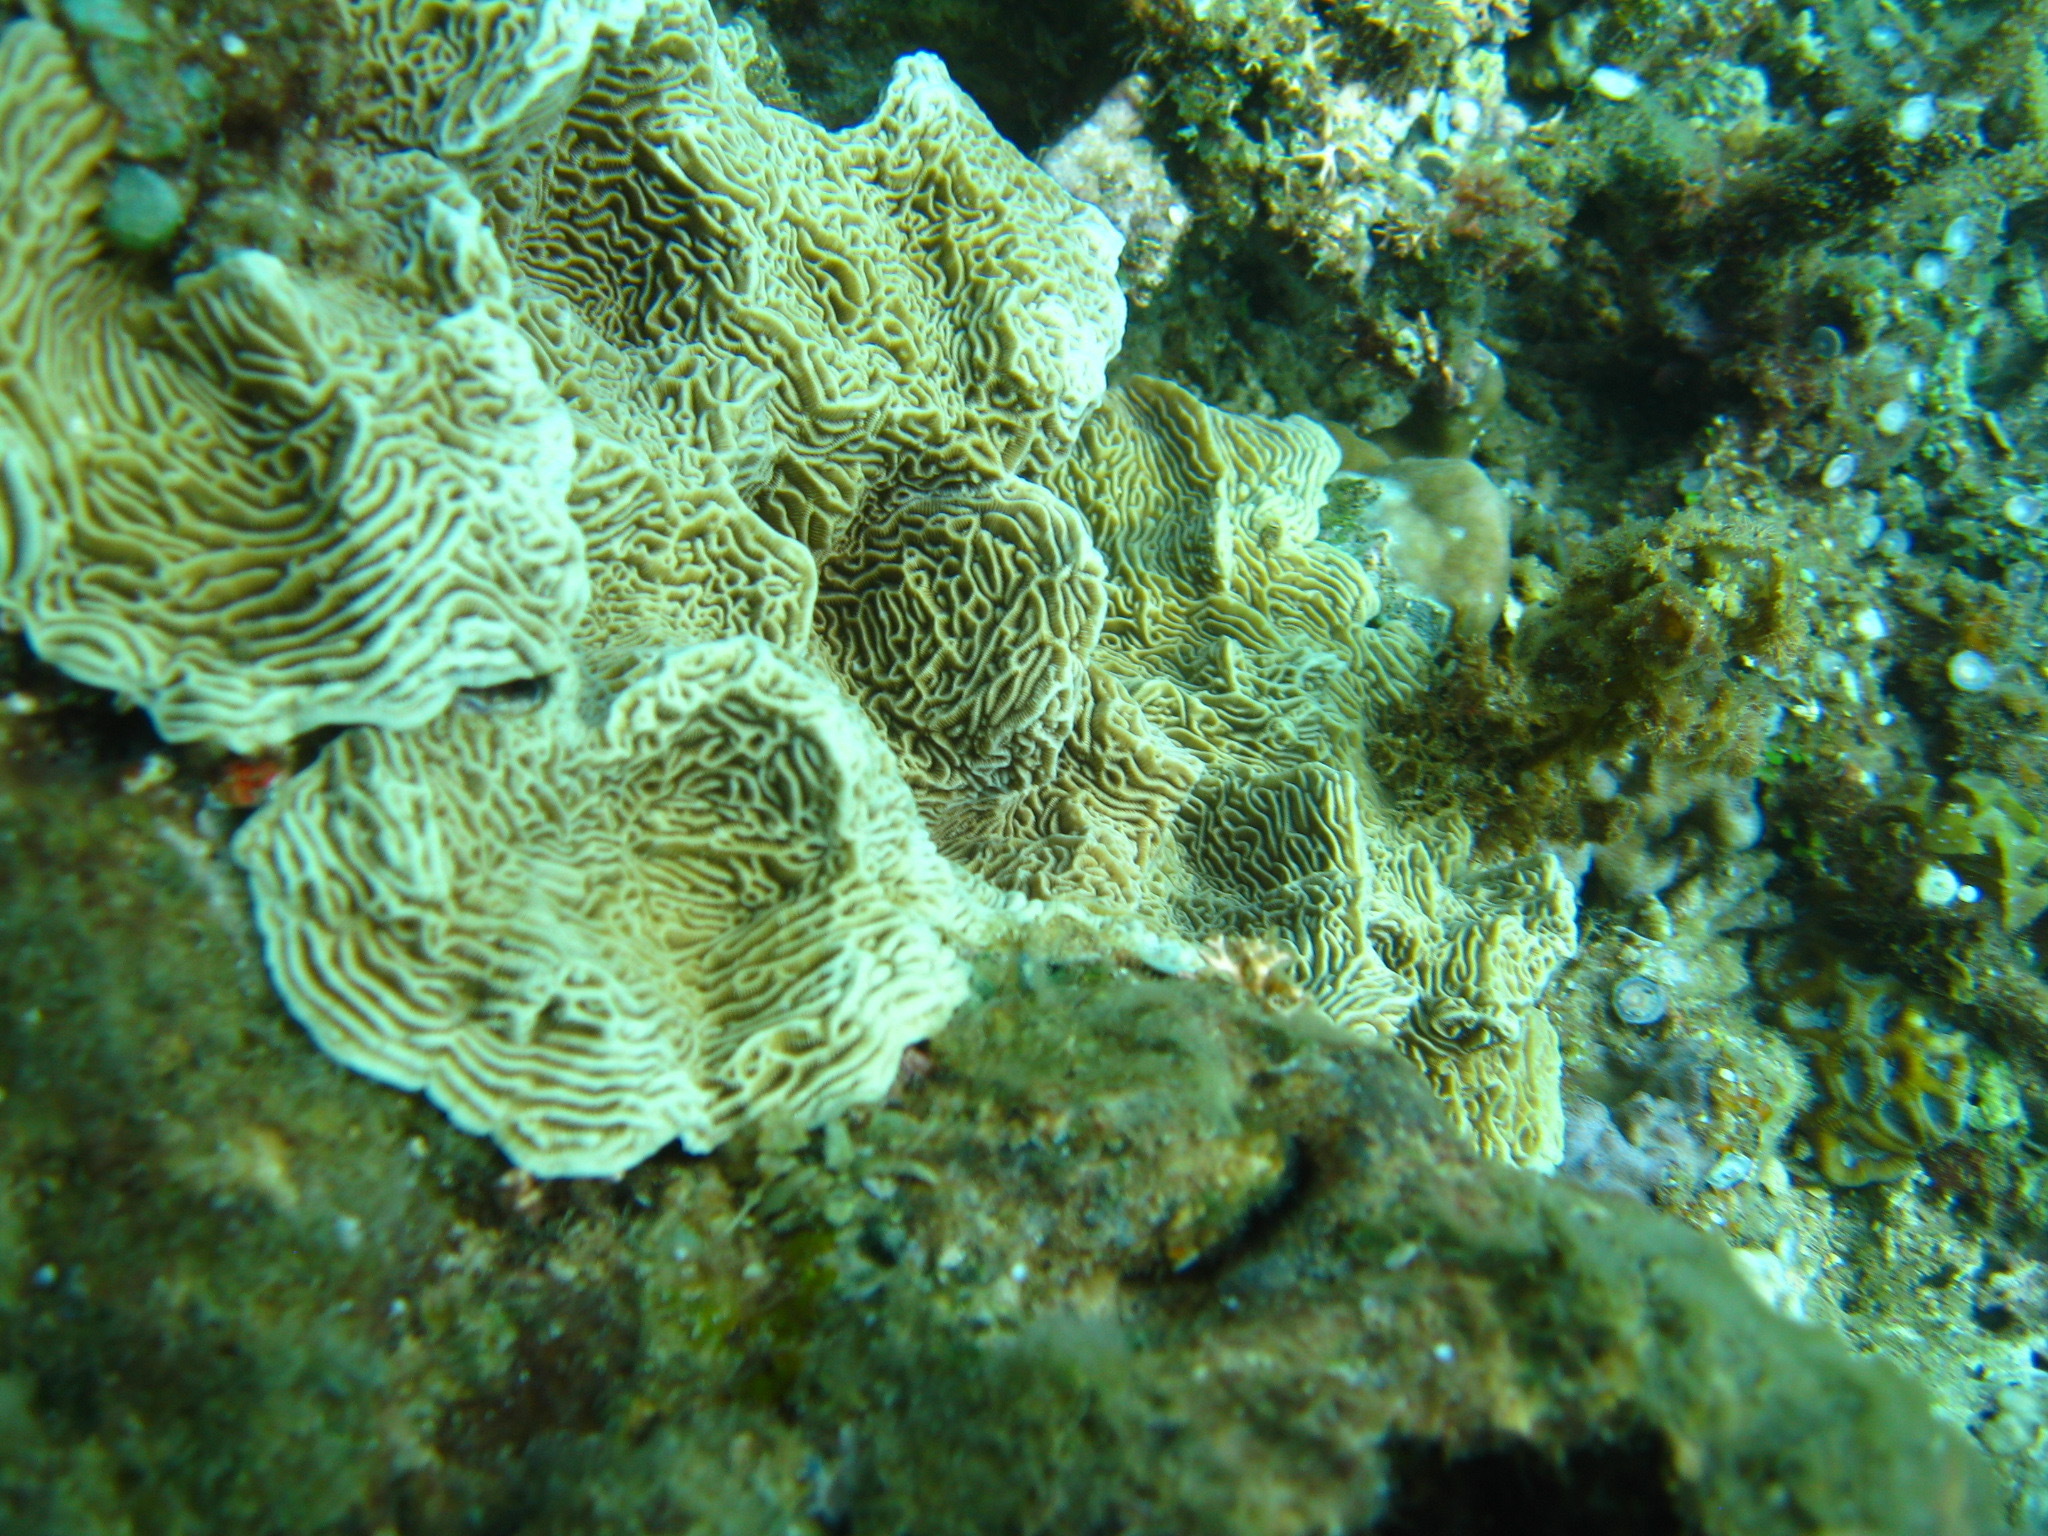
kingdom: Animalia
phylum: Cnidaria
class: Anthozoa
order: Scleractinia
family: Pachyseridae
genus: Pachyseris
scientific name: Pachyseris gemmae
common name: Serpent coral
